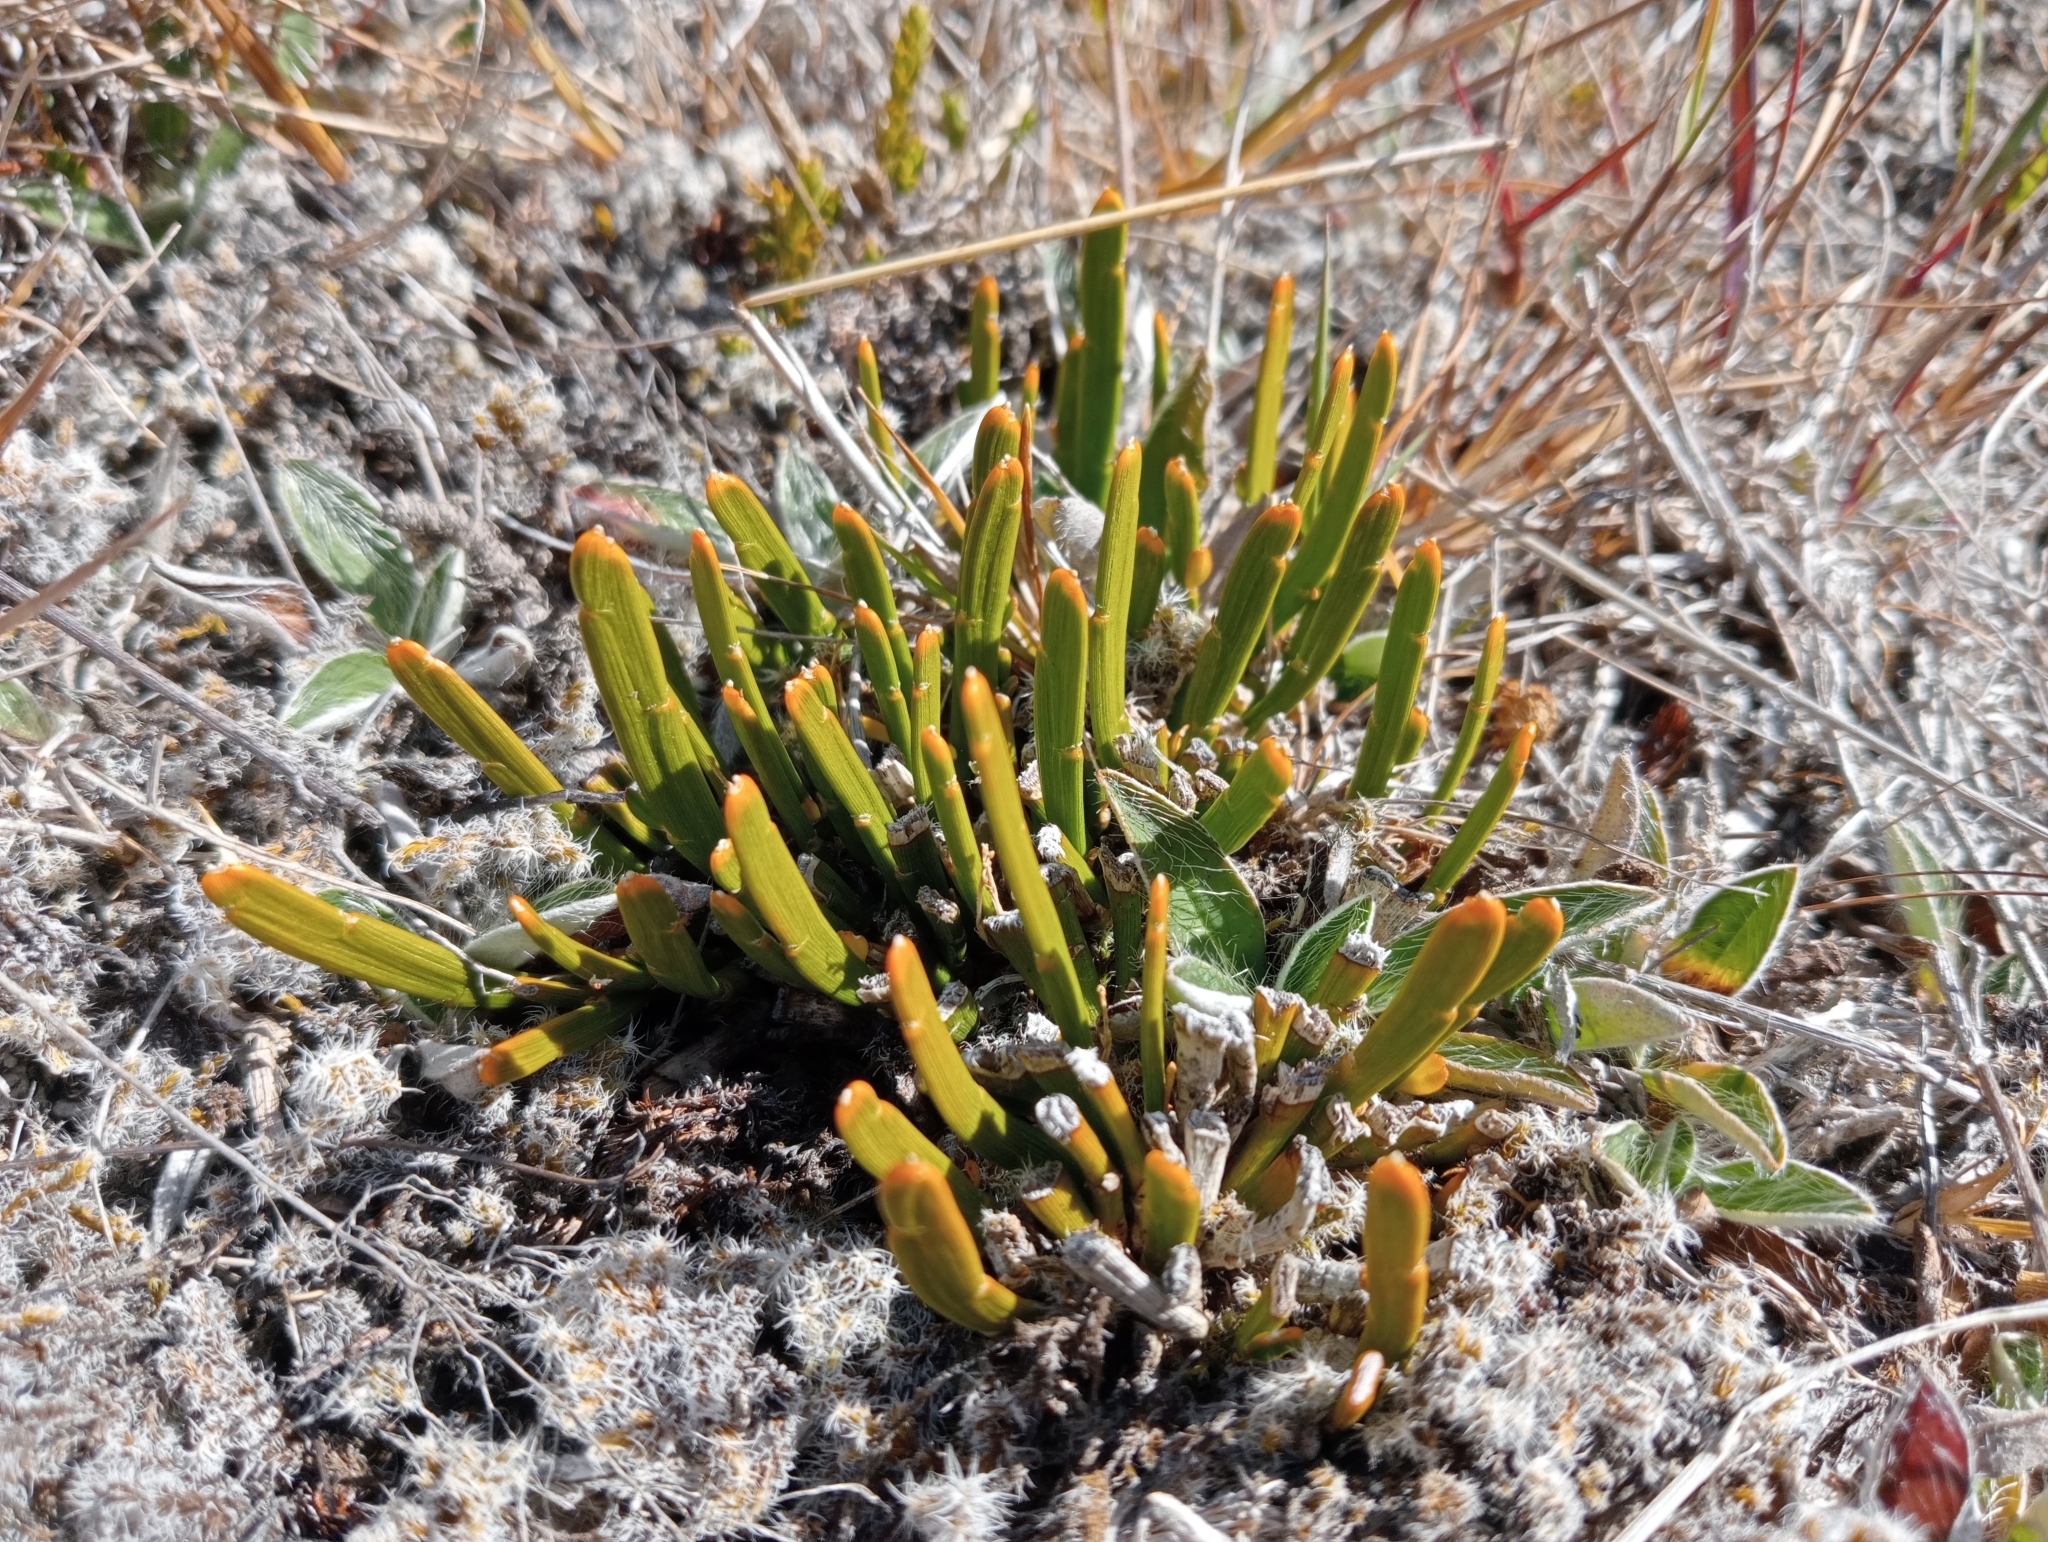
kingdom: Plantae
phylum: Tracheophyta
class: Magnoliopsida
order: Fabales
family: Fabaceae
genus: Carmichaelia
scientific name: Carmichaelia vexillata
